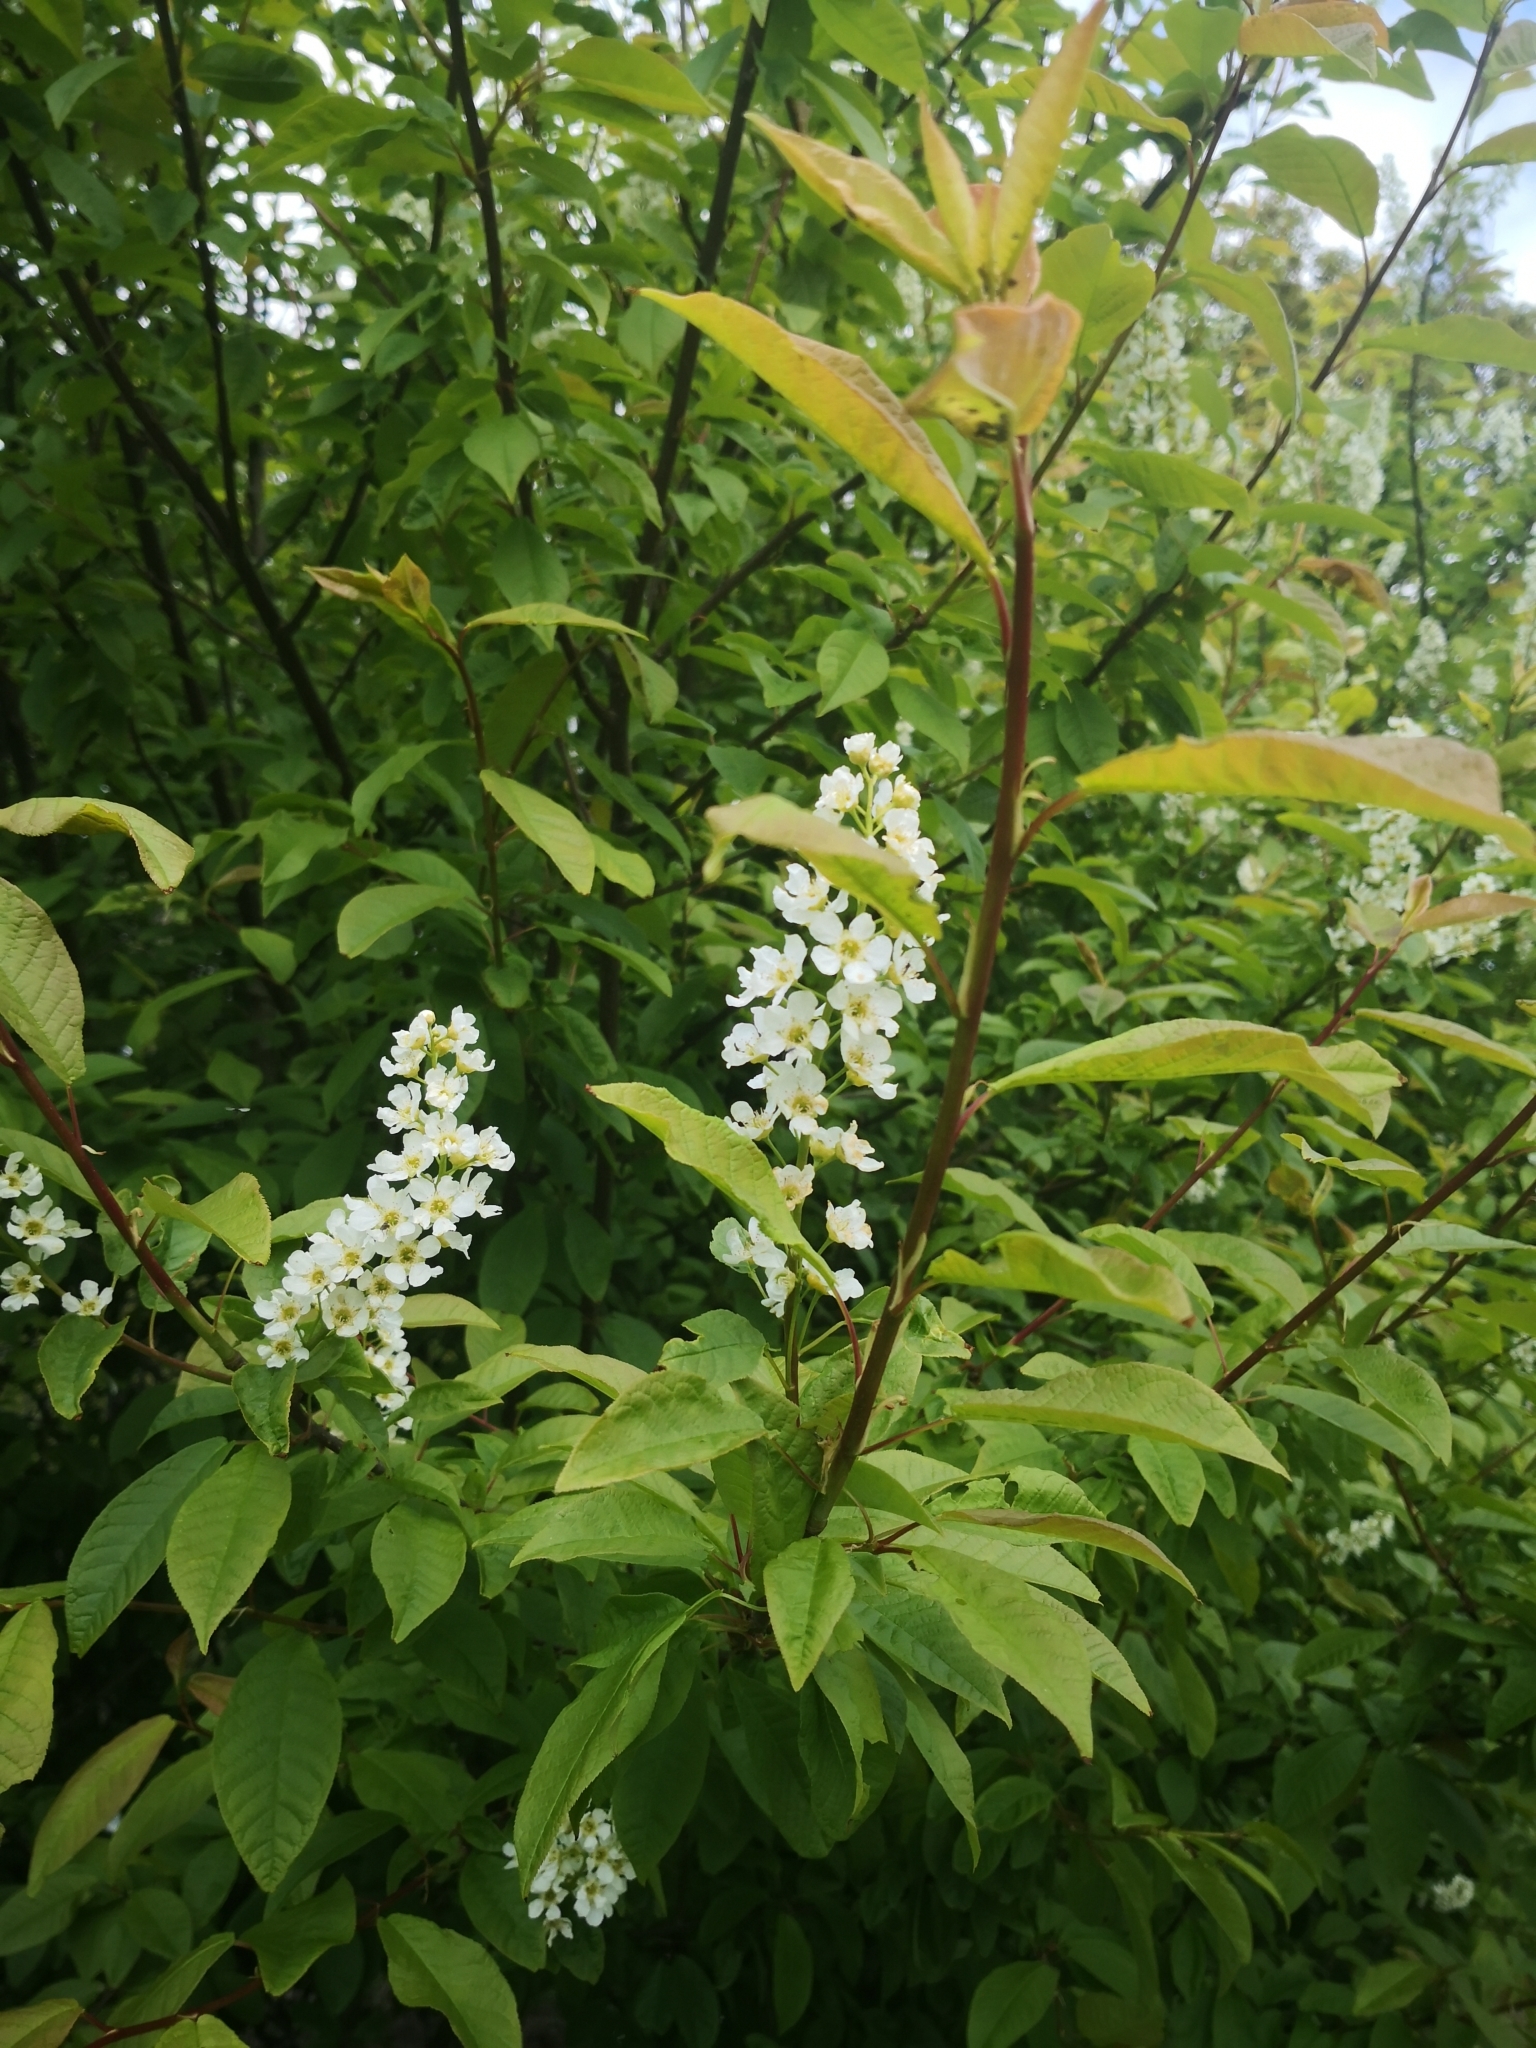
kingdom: Plantae
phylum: Tracheophyta
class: Magnoliopsida
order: Rosales
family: Rosaceae
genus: Prunus
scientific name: Prunus padus
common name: Bird cherry
